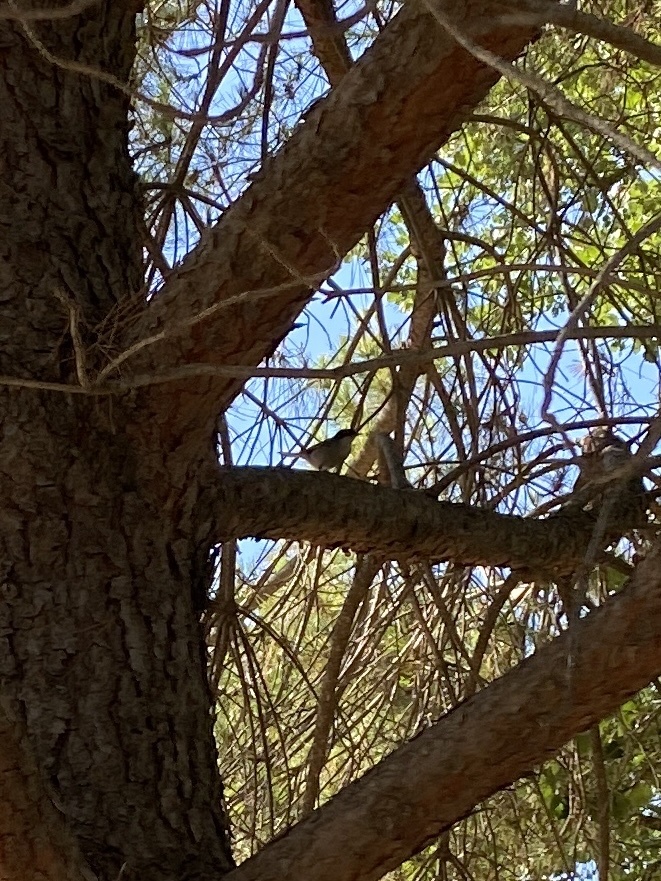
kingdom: Animalia
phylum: Chordata
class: Aves
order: Passeriformes
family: Sylviidae
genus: Curruca
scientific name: Curruca melanocephala
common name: Sardinian warbler
